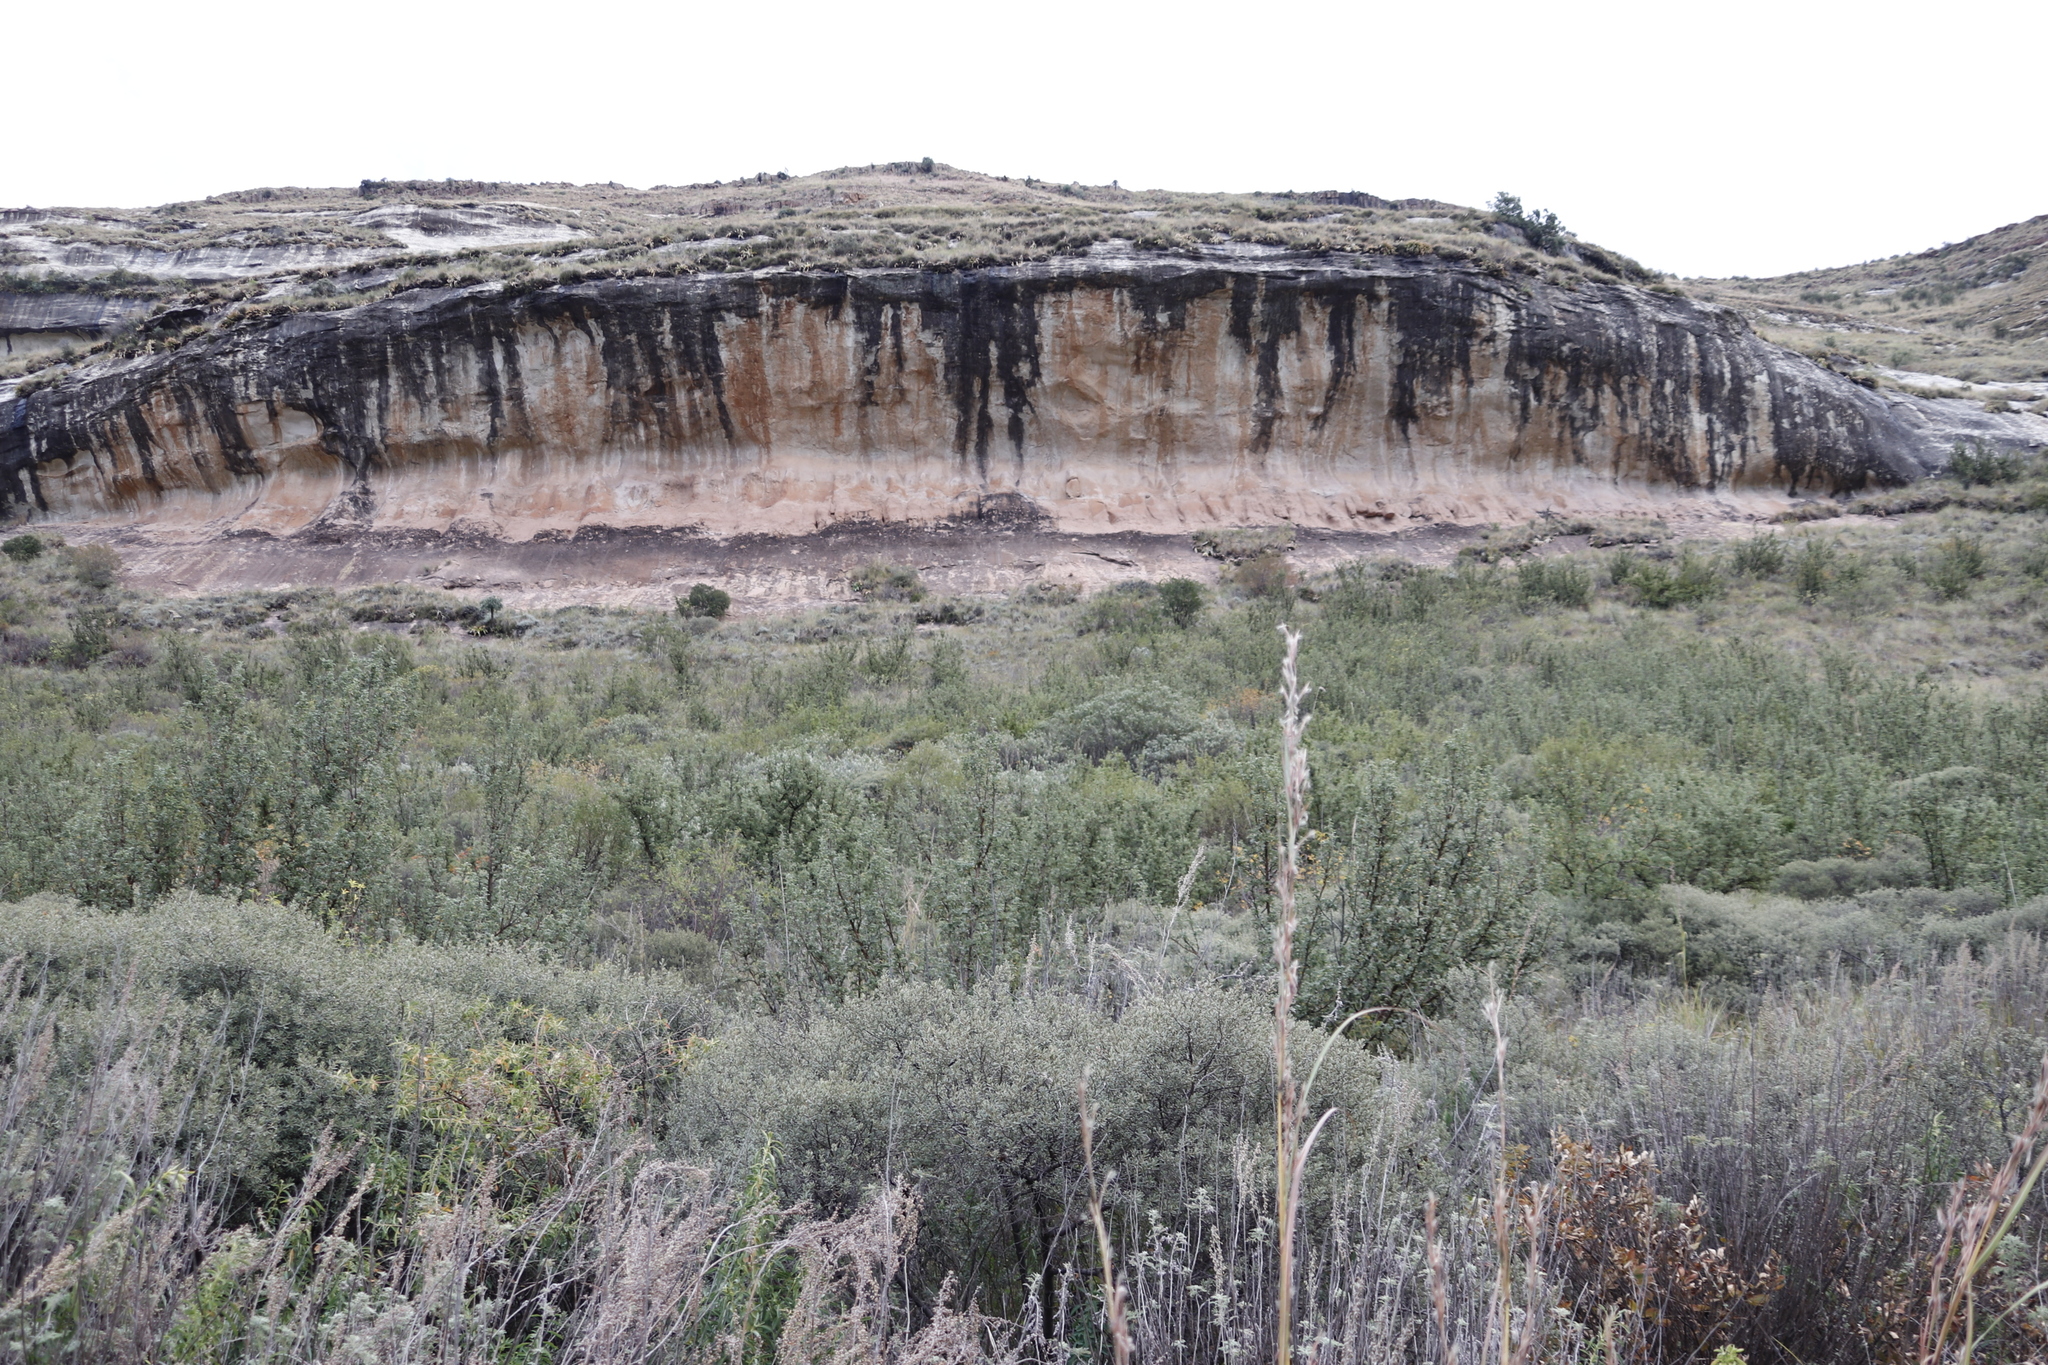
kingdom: Plantae
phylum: Tracheophyta
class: Magnoliopsida
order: Rosales
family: Rosaceae
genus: Leucosidea
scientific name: Leucosidea sericea
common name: Oldwood
